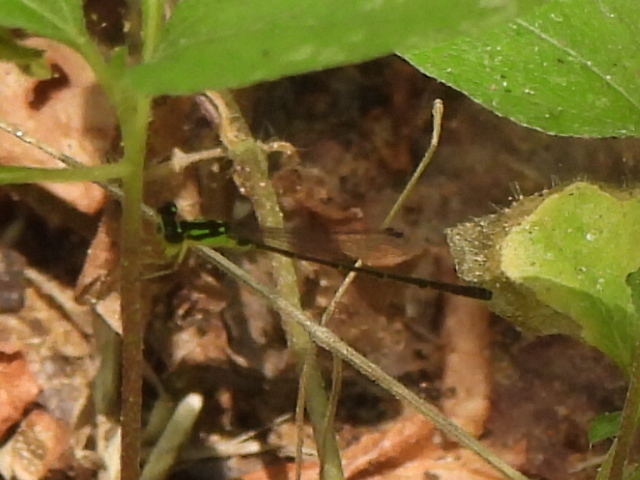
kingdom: Animalia
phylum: Arthropoda
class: Insecta
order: Odonata
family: Coenagrionidae
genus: Ischnura
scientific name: Ischnura posita
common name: Fragile forktail
